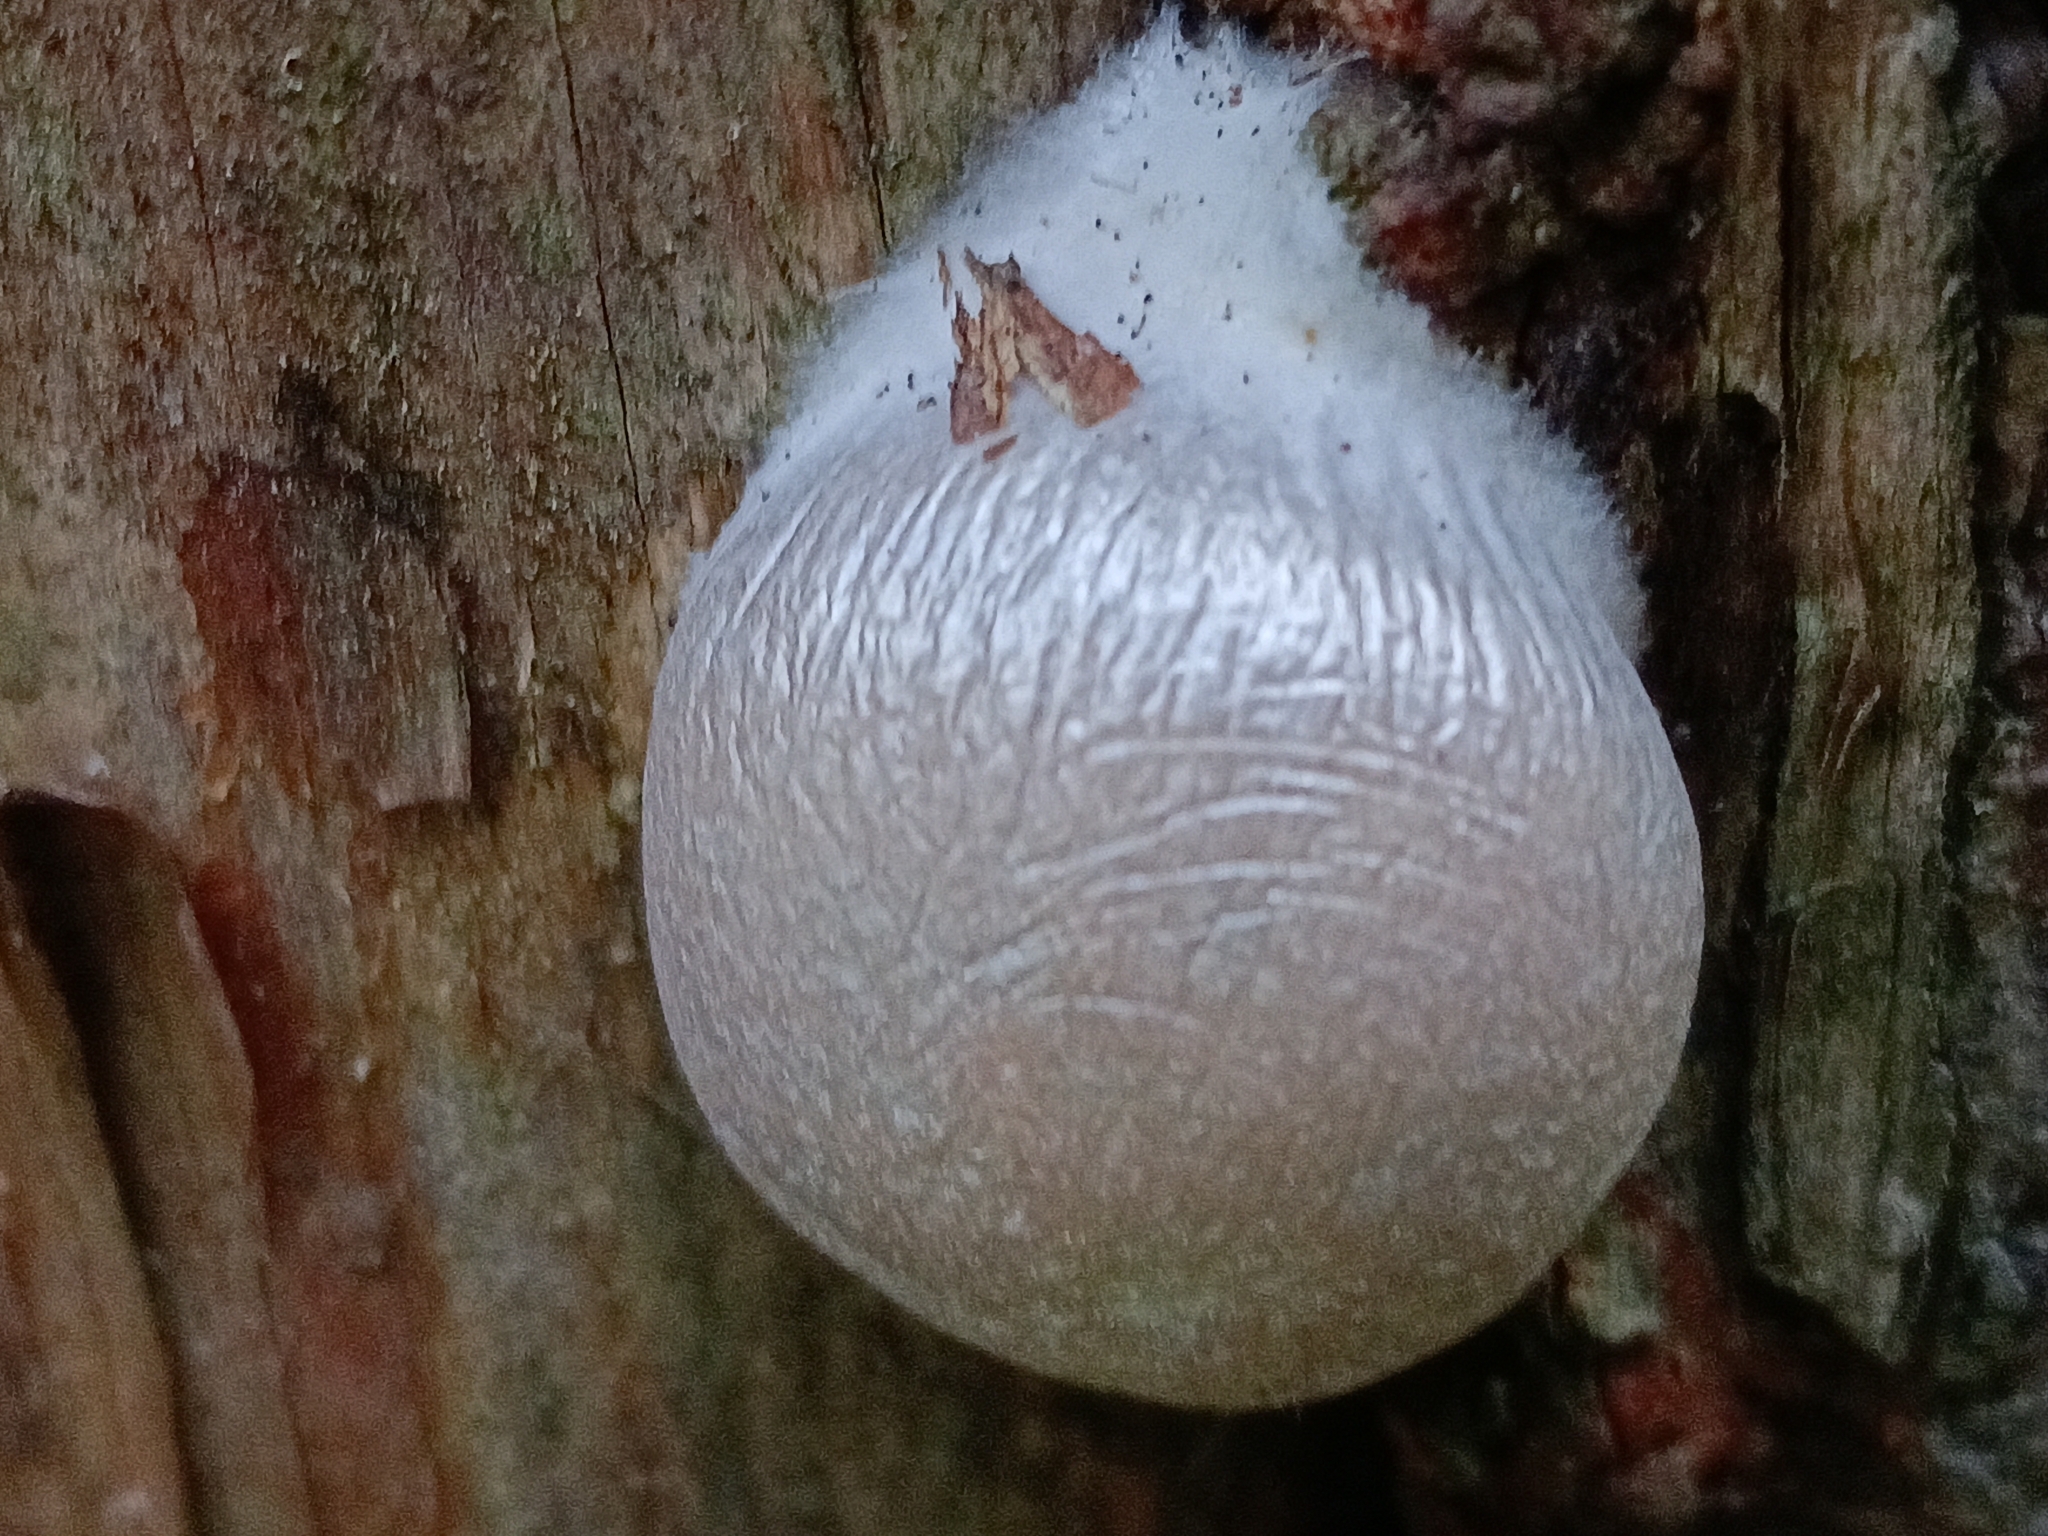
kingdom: Protozoa
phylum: Mycetozoa
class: Myxomycetes
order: Cribrariales
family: Tubiferaceae
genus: Reticularia
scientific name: Reticularia lycoperdon
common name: False puffball
